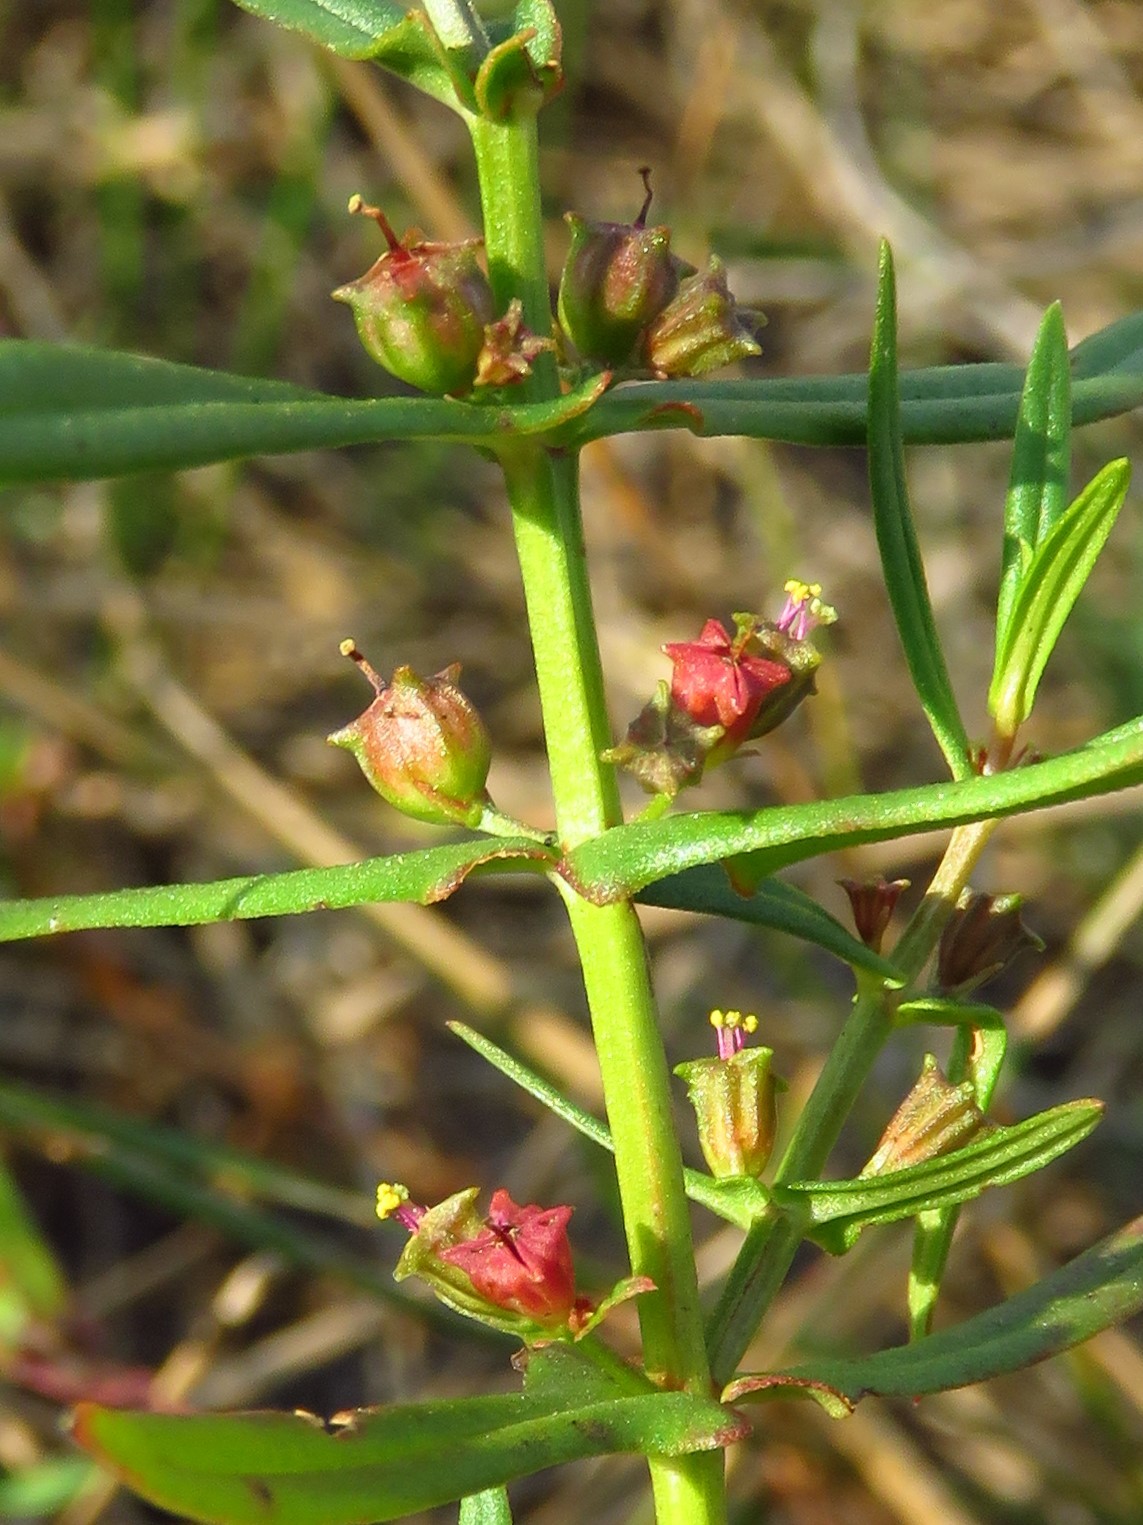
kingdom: Plantae
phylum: Tracheophyta
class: Magnoliopsida
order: Myrtales
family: Lythraceae
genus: Ammannia
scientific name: Ammannia coccinea
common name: Valley redstem
